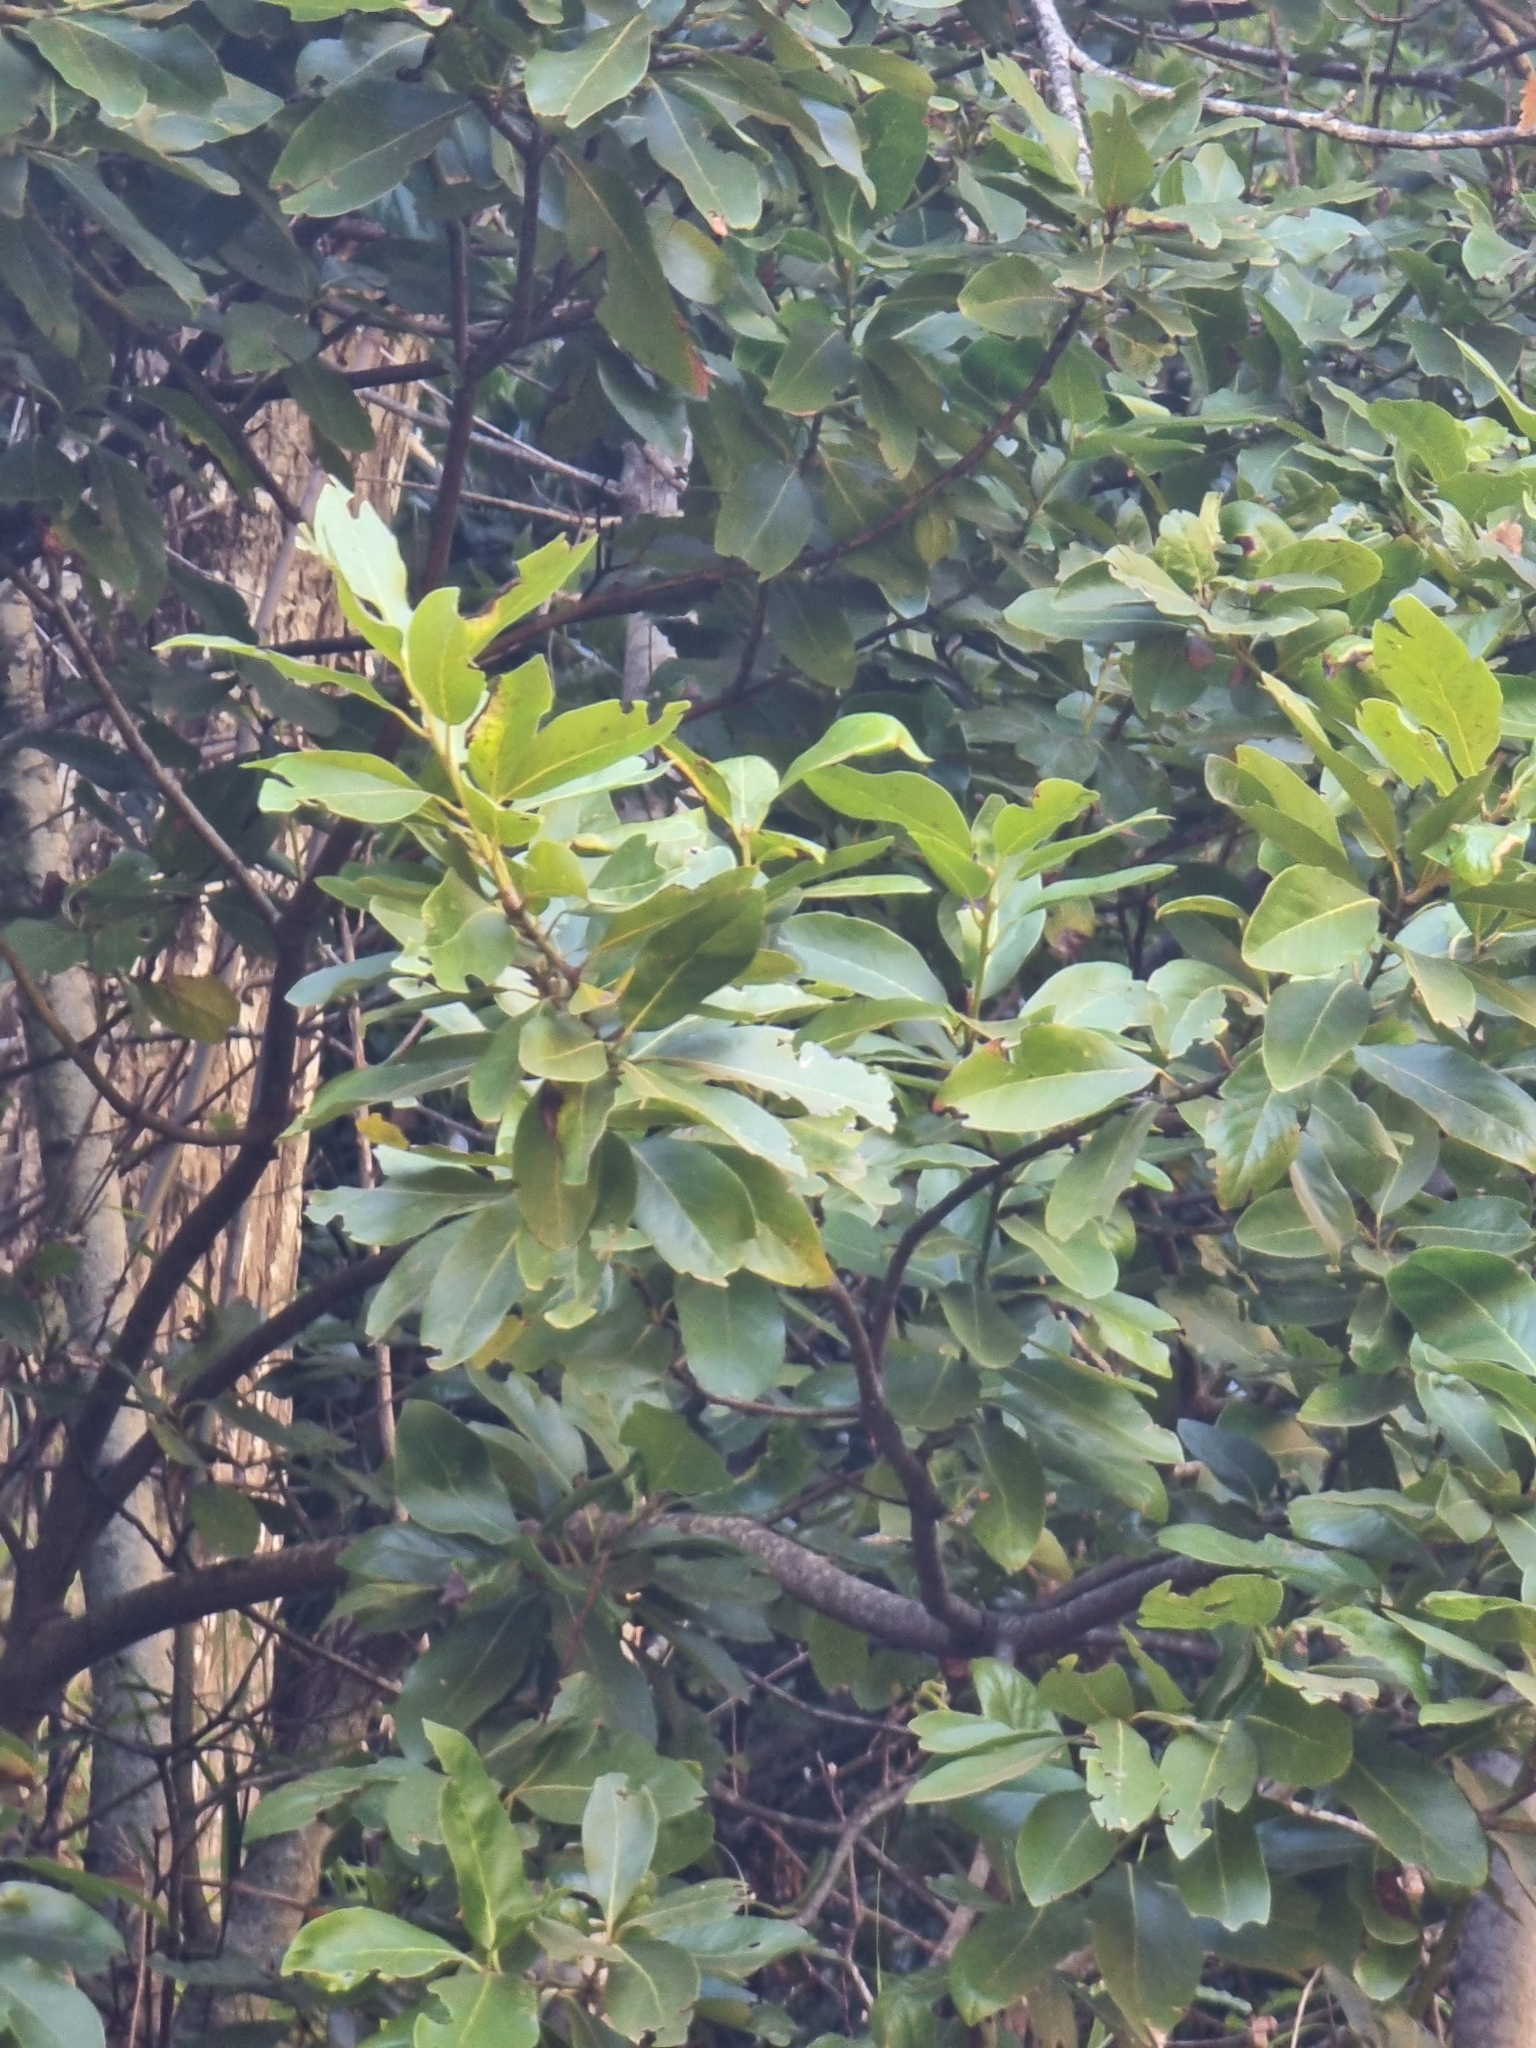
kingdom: Plantae
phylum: Tracheophyta
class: Magnoliopsida
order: Laurales
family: Lauraceae
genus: Laurus
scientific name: Laurus novocanariensis
